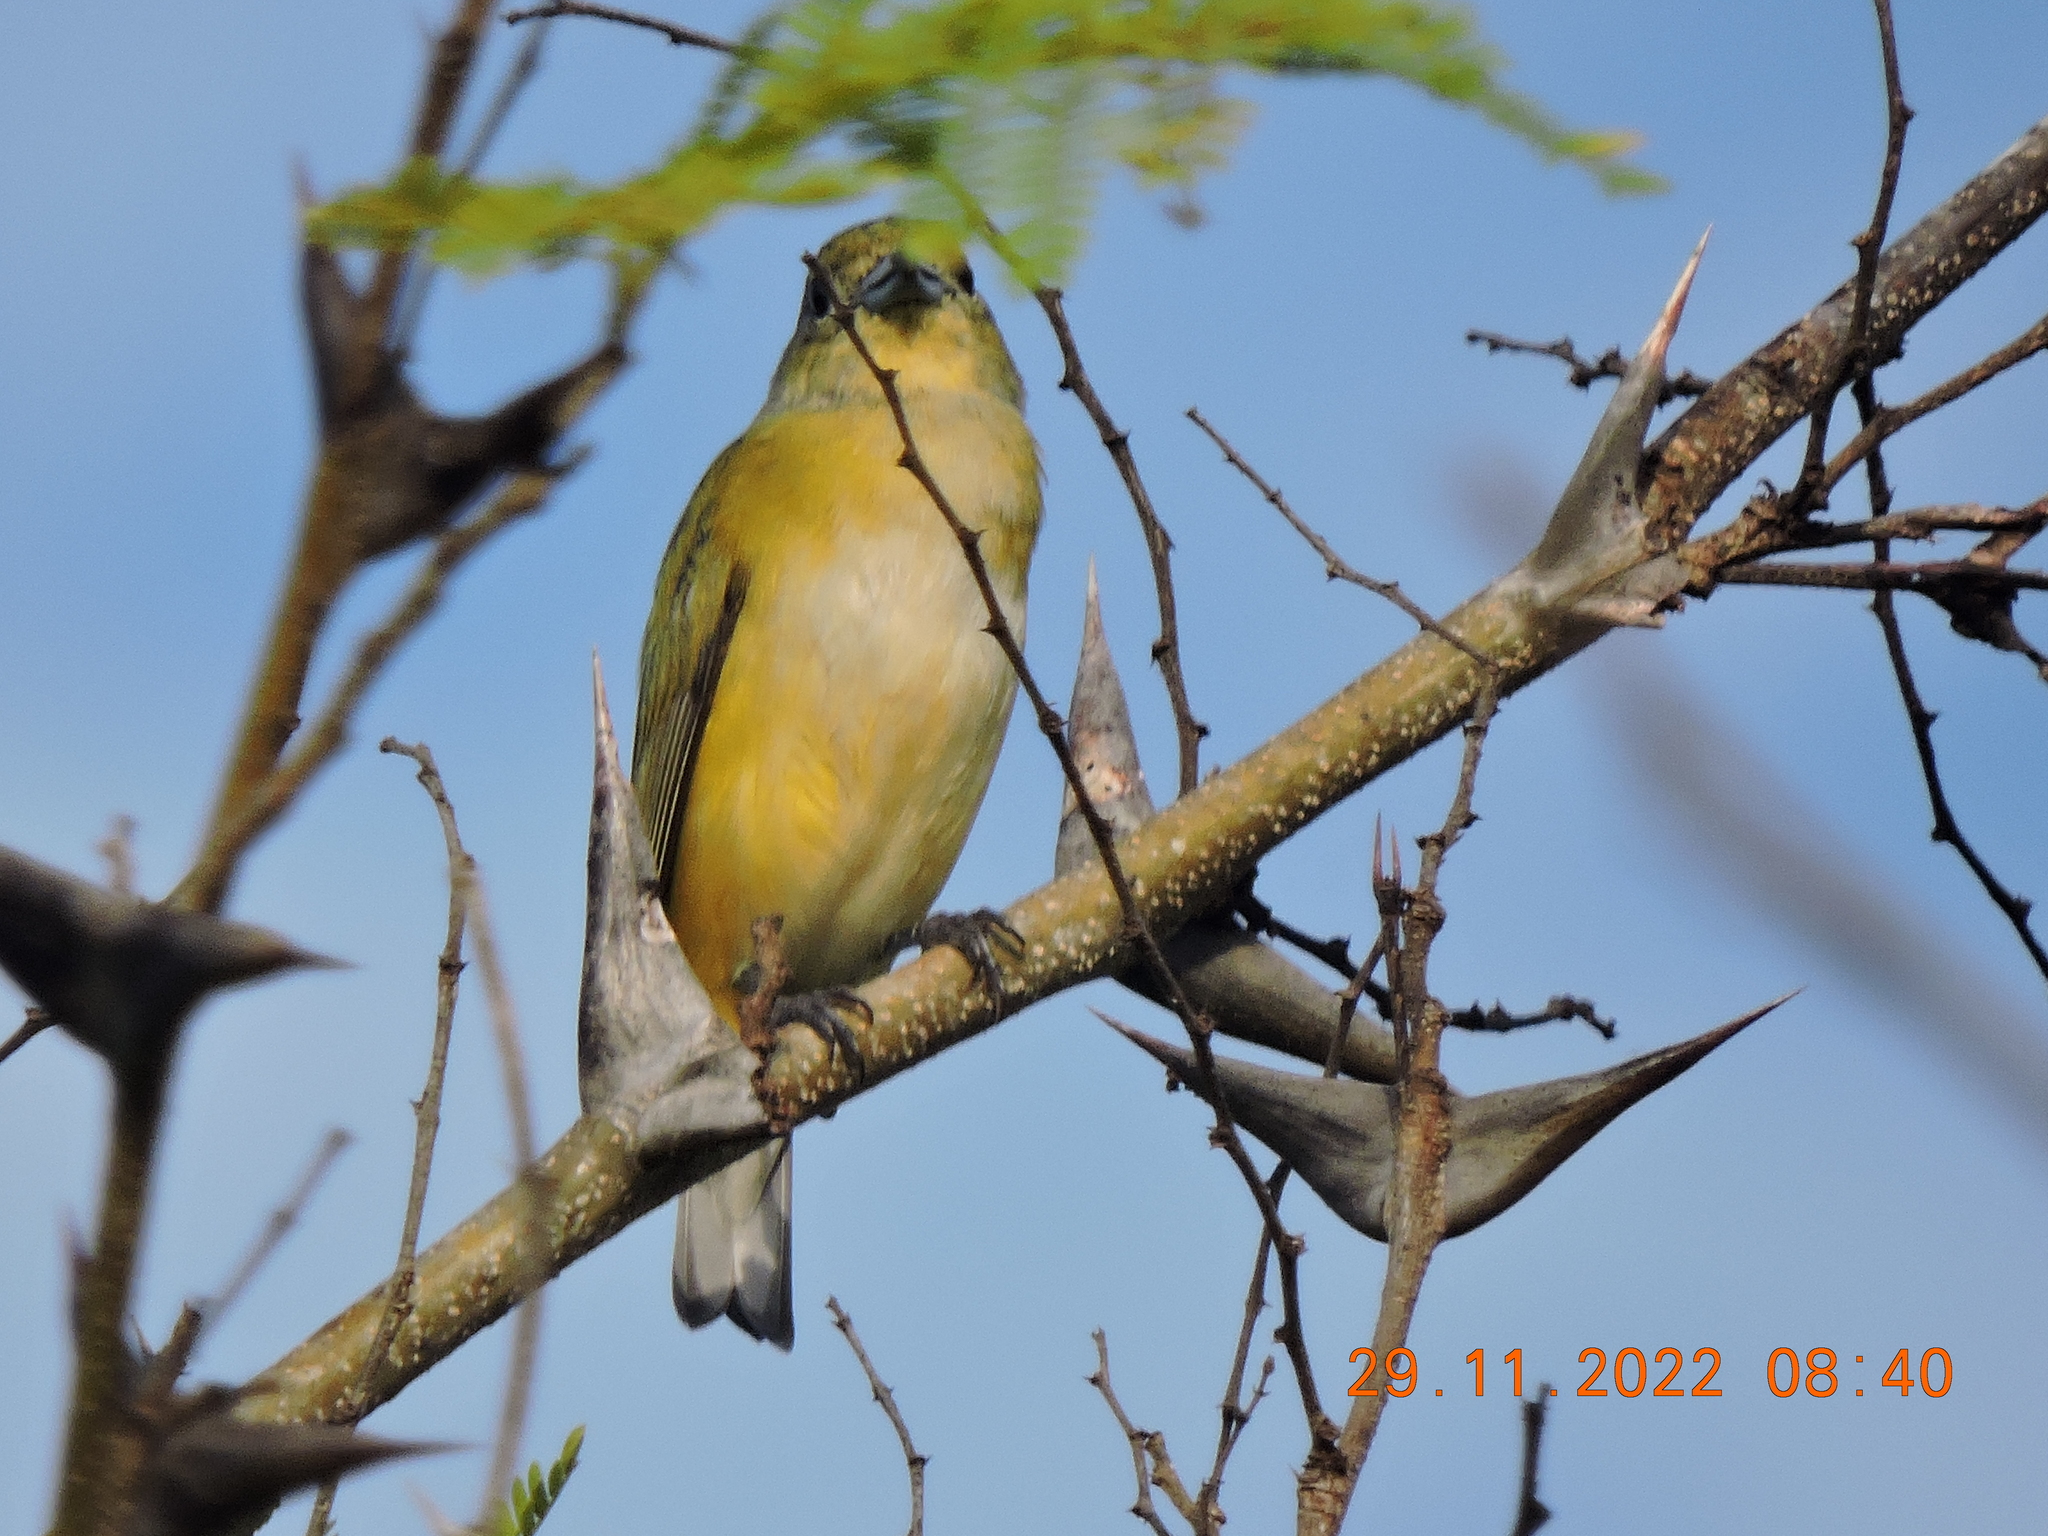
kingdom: Animalia
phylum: Chordata
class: Aves
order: Passeriformes
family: Fringillidae
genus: Euphonia
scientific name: Euphonia godmani
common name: West mexican euphonia
